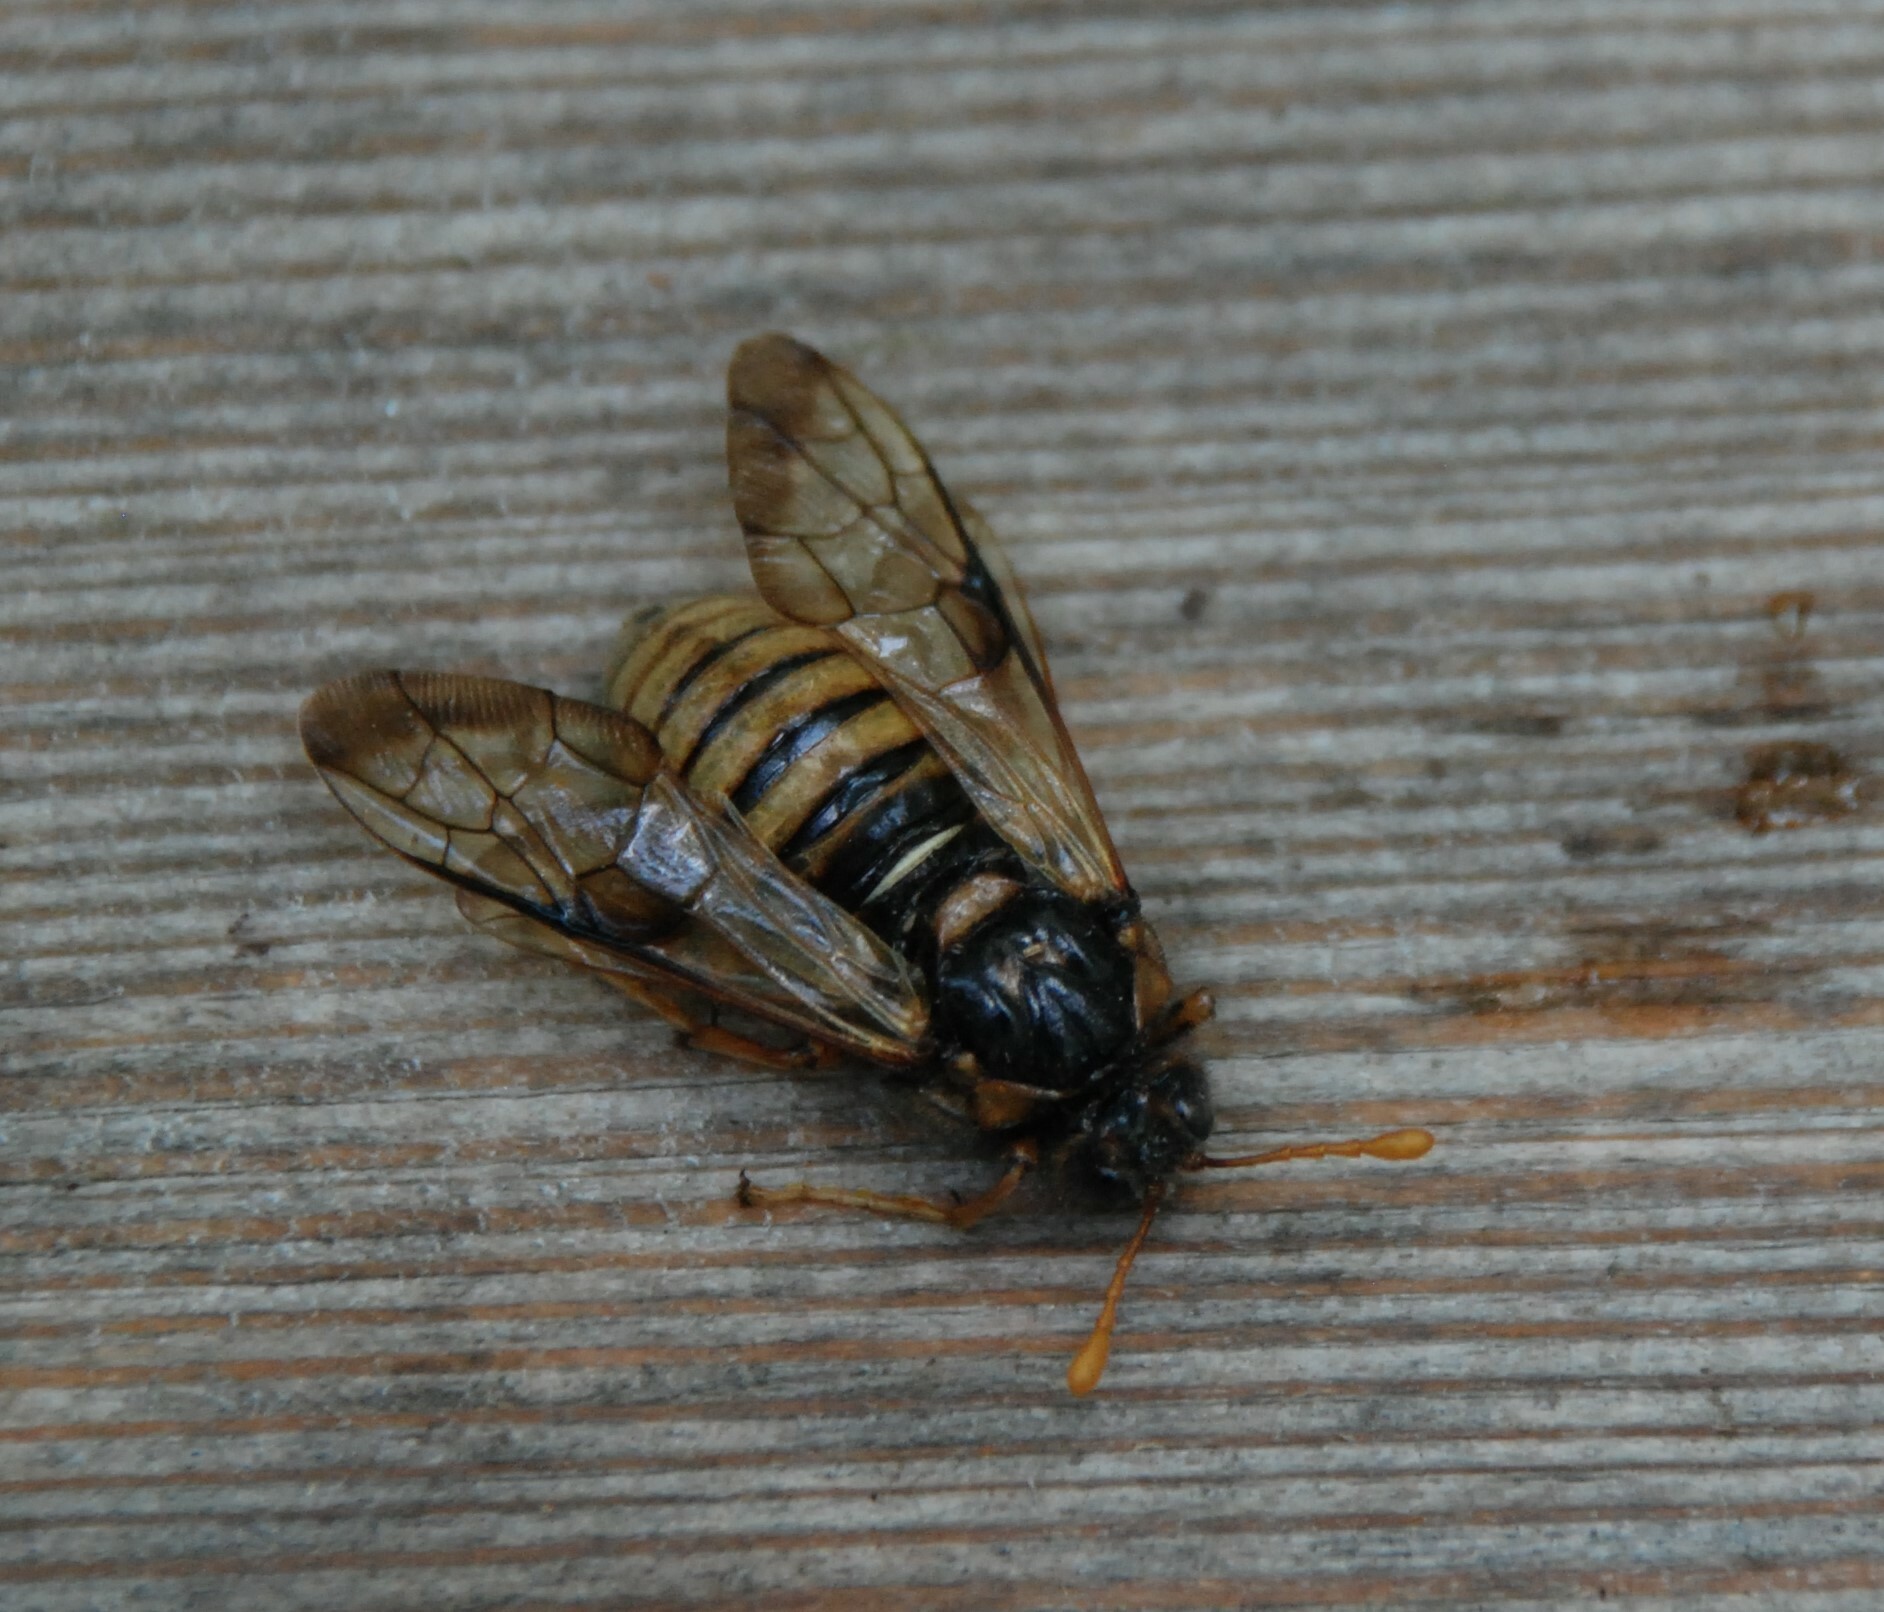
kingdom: Animalia
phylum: Arthropoda
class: Insecta
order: Hymenoptera
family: Cimbicidae
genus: Cimbex
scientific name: Cimbex femoratus
